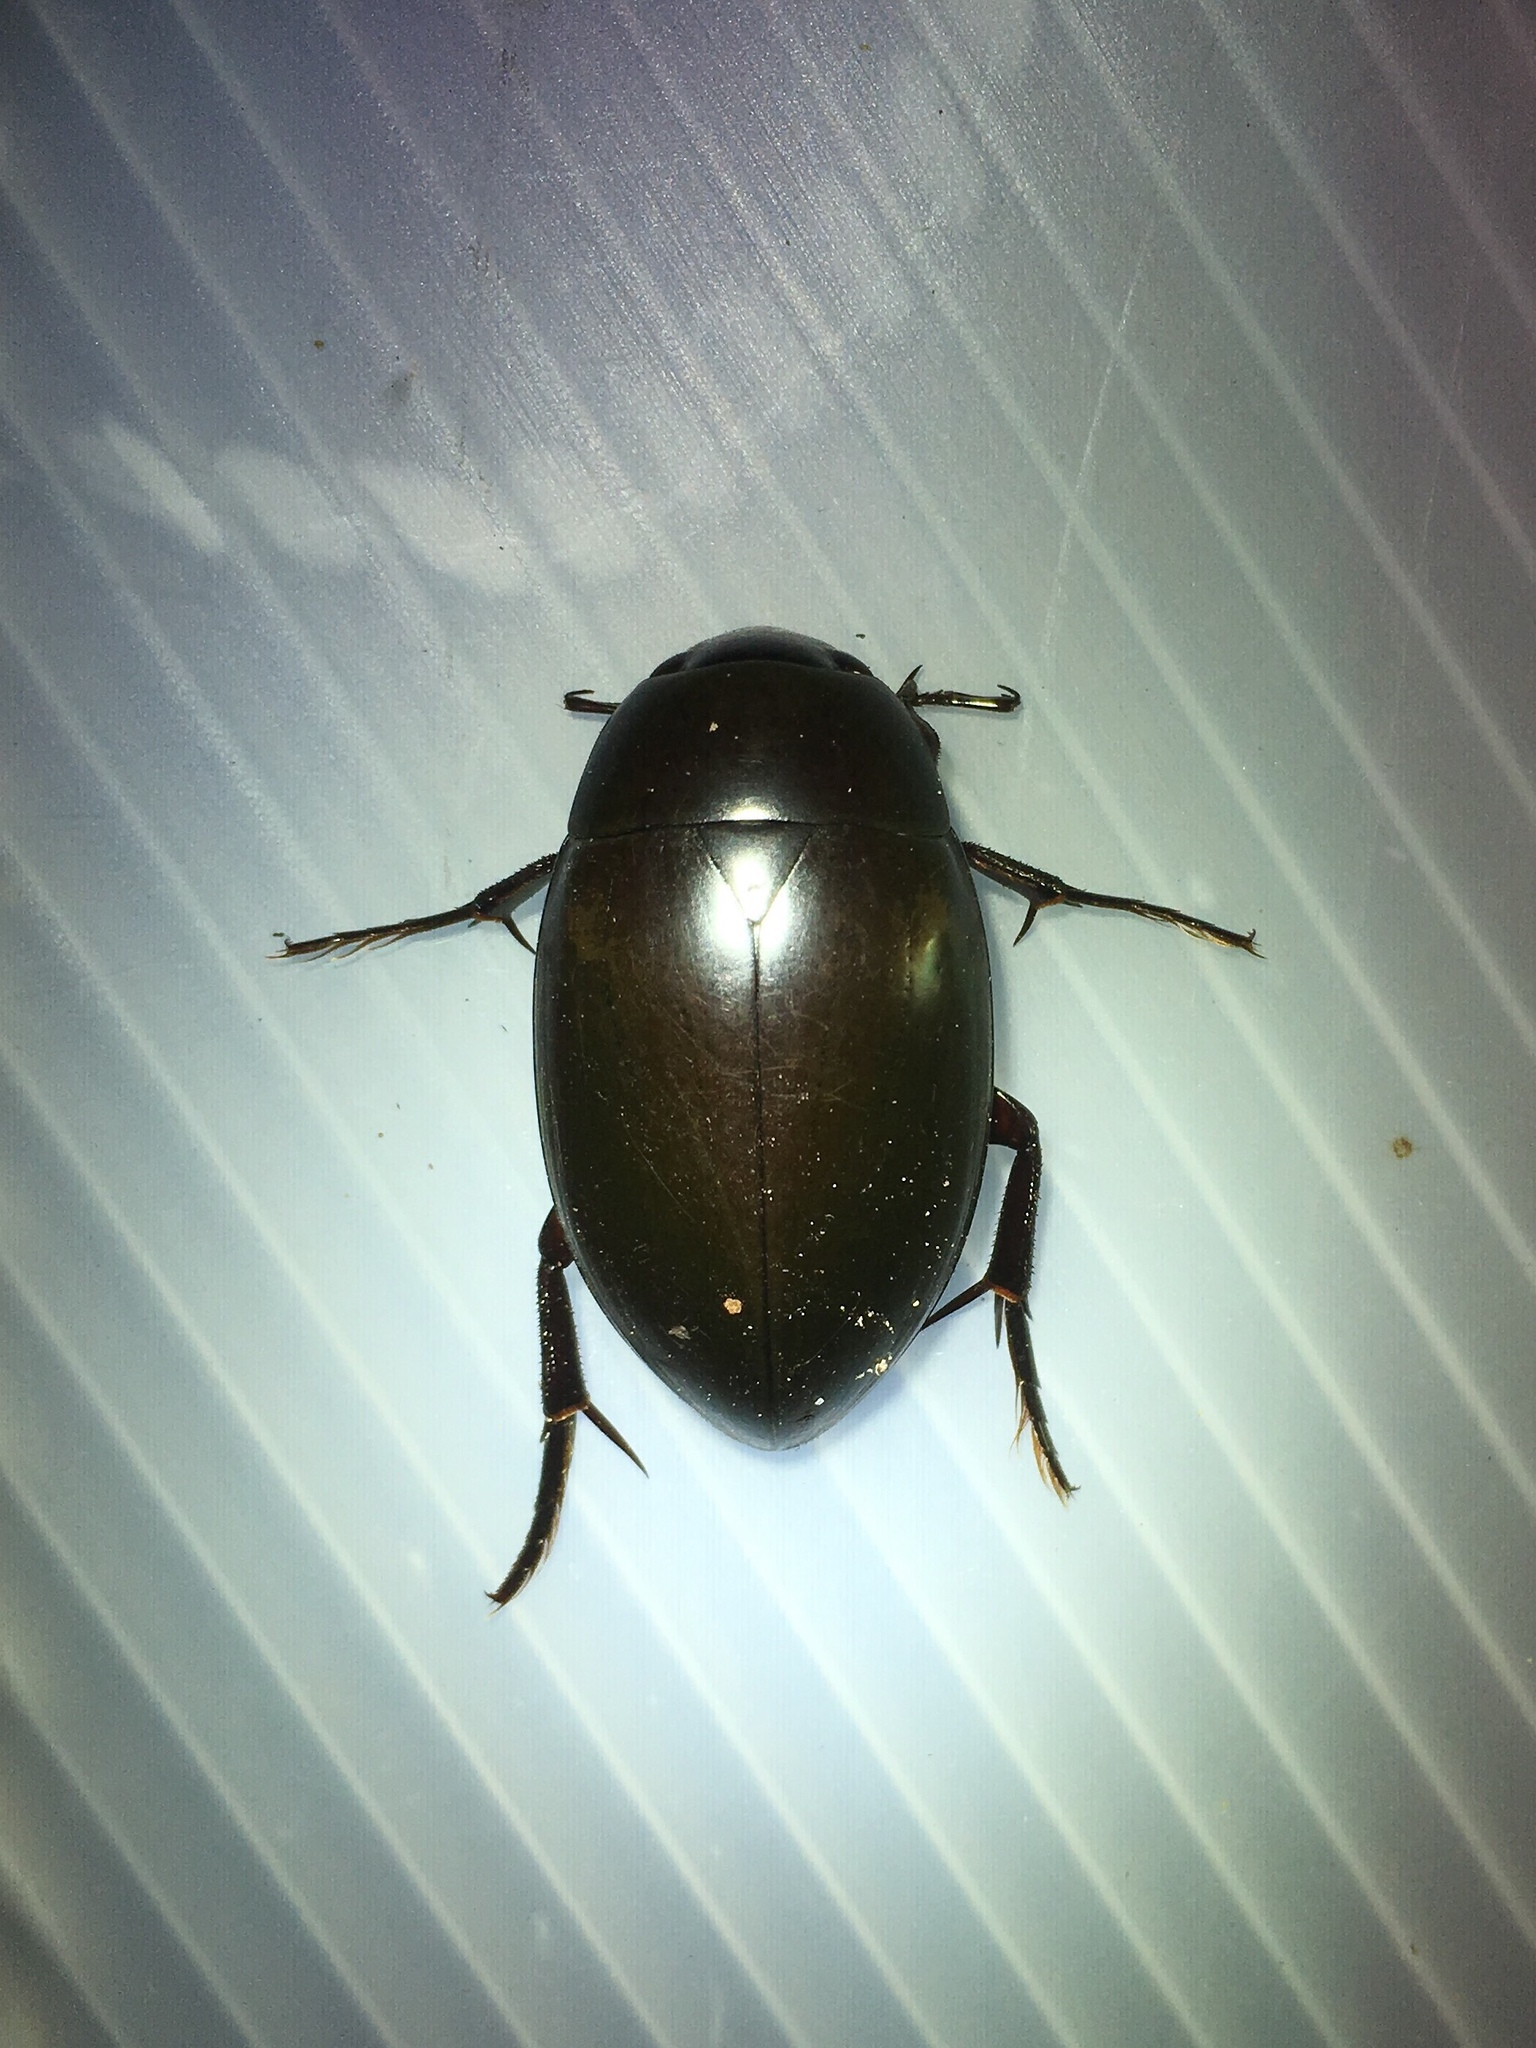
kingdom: Animalia
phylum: Arthropoda
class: Insecta
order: Coleoptera
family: Hydrophilidae
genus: Hydrophilus
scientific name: Hydrophilus ovatus
